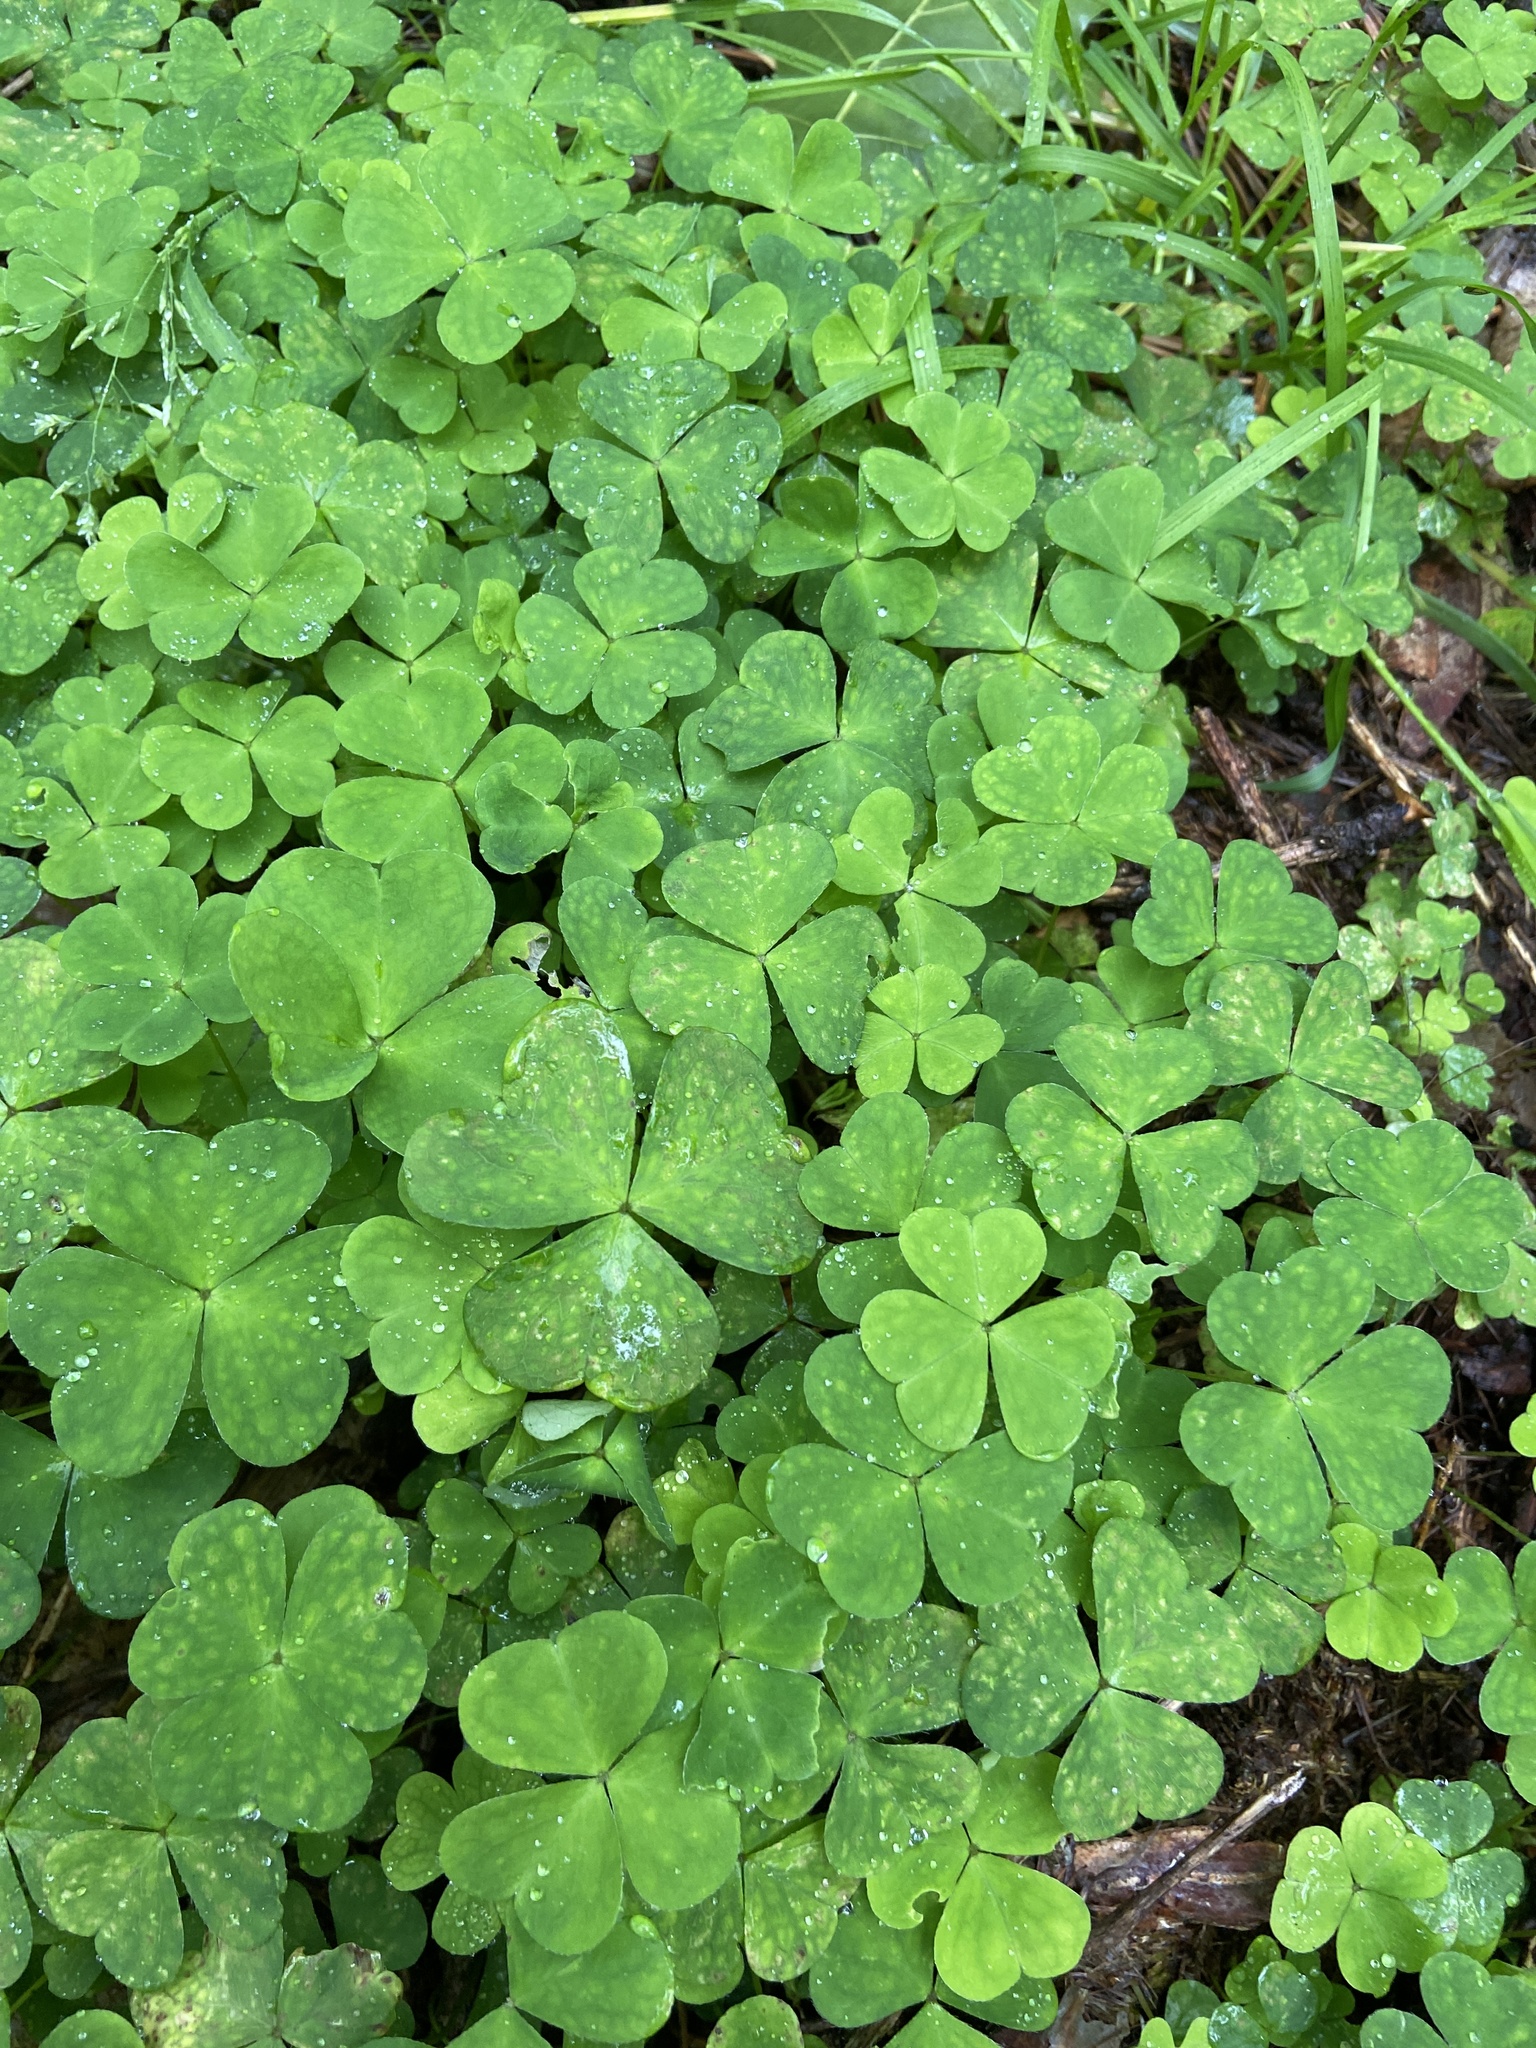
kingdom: Plantae
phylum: Tracheophyta
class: Magnoliopsida
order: Oxalidales
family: Oxalidaceae
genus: Oxalis
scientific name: Oxalis acetosella
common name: Wood-sorrel
